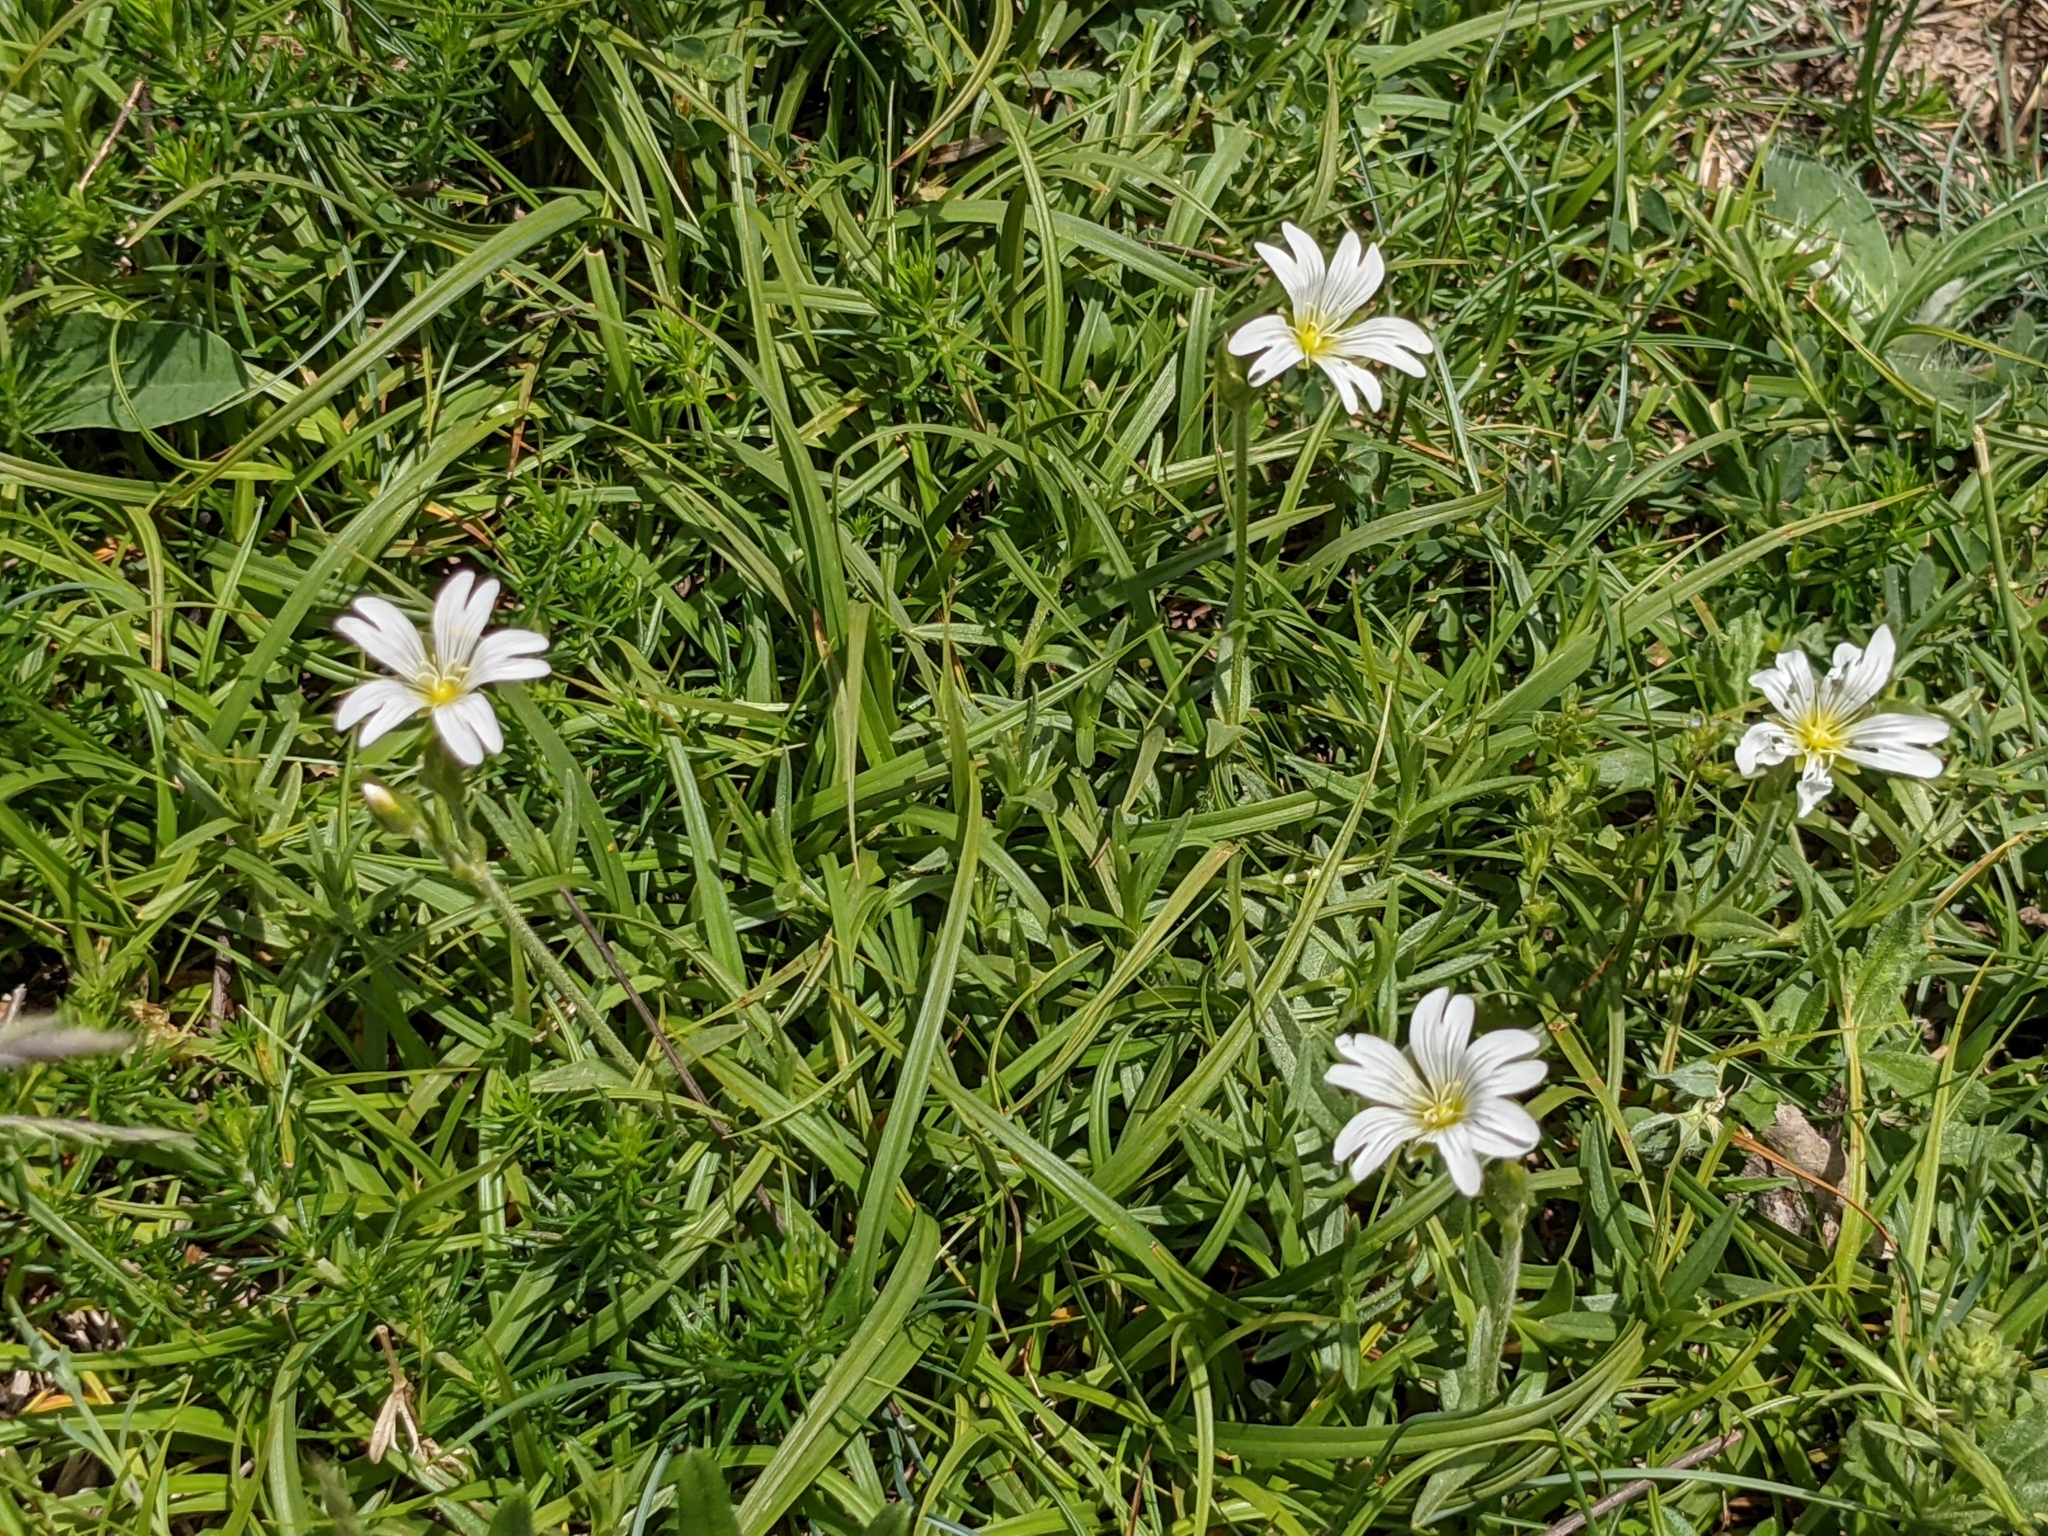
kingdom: Plantae
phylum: Tracheophyta
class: Magnoliopsida
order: Caryophyllales
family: Caryophyllaceae
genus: Rabelera
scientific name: Rabelera holostea
